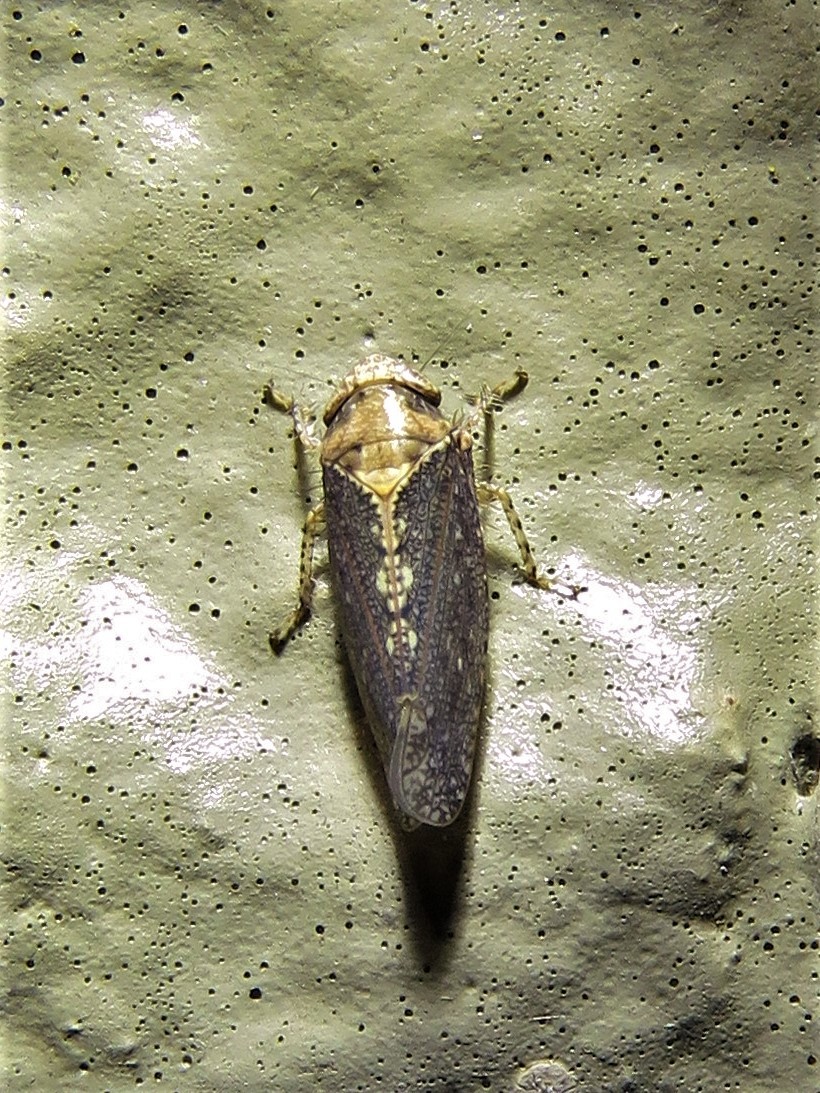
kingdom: Animalia
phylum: Arthropoda
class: Insecta
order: Hemiptera
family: Cicadellidae
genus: Excultanus
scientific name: Excultanus excultus
